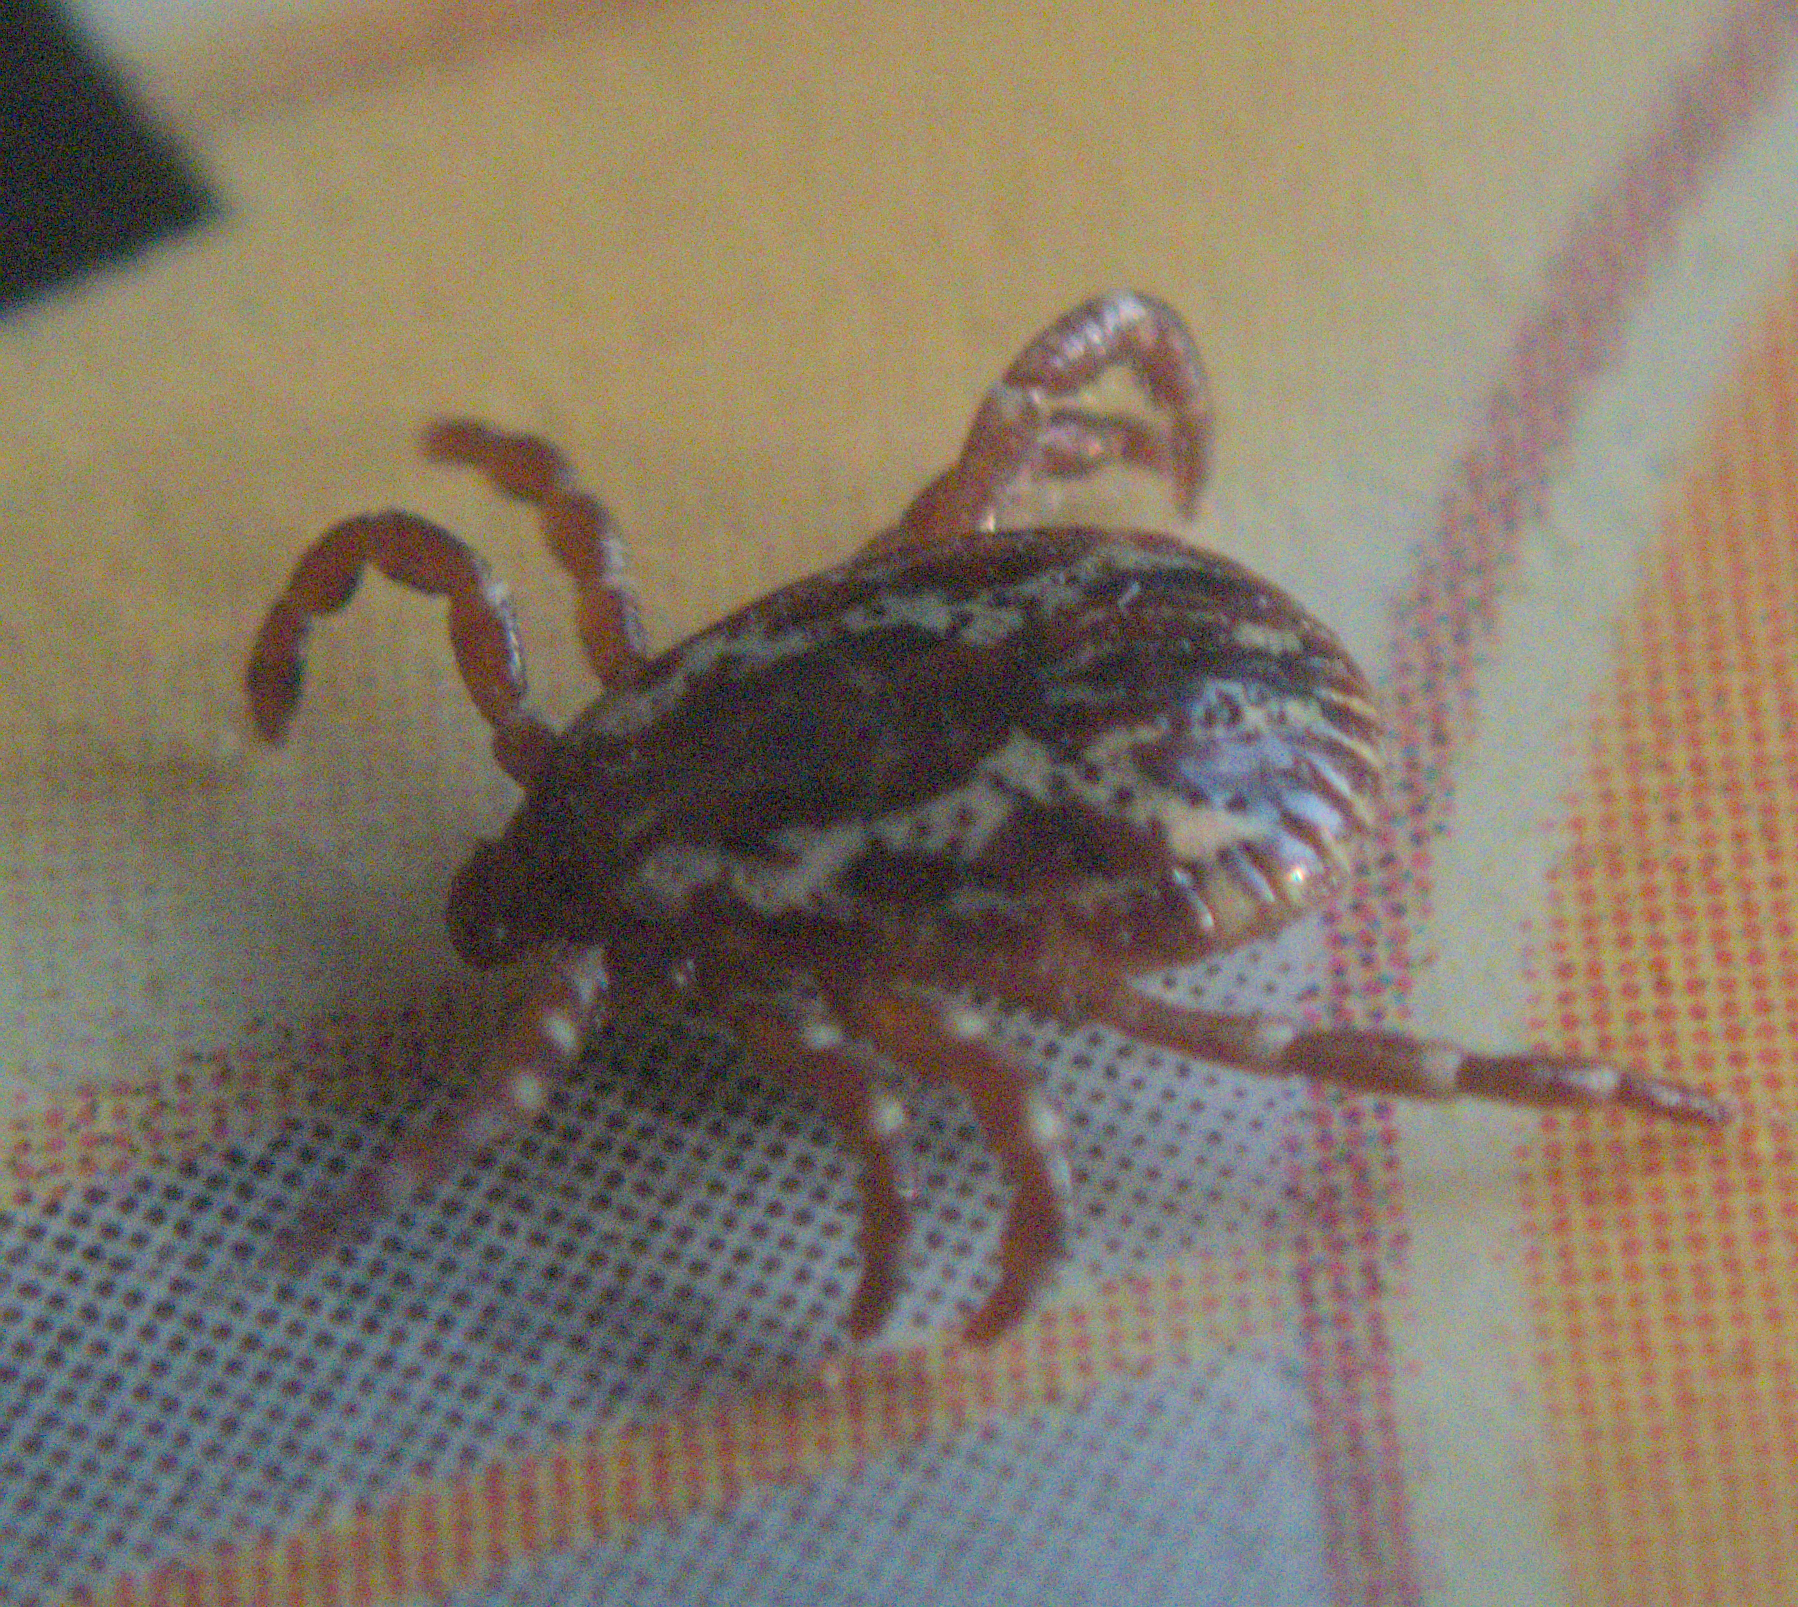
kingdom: Animalia
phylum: Arthropoda
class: Arachnida
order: Ixodida
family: Ixodidae
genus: Dermacentor
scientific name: Dermacentor variabilis
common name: American dog tick
